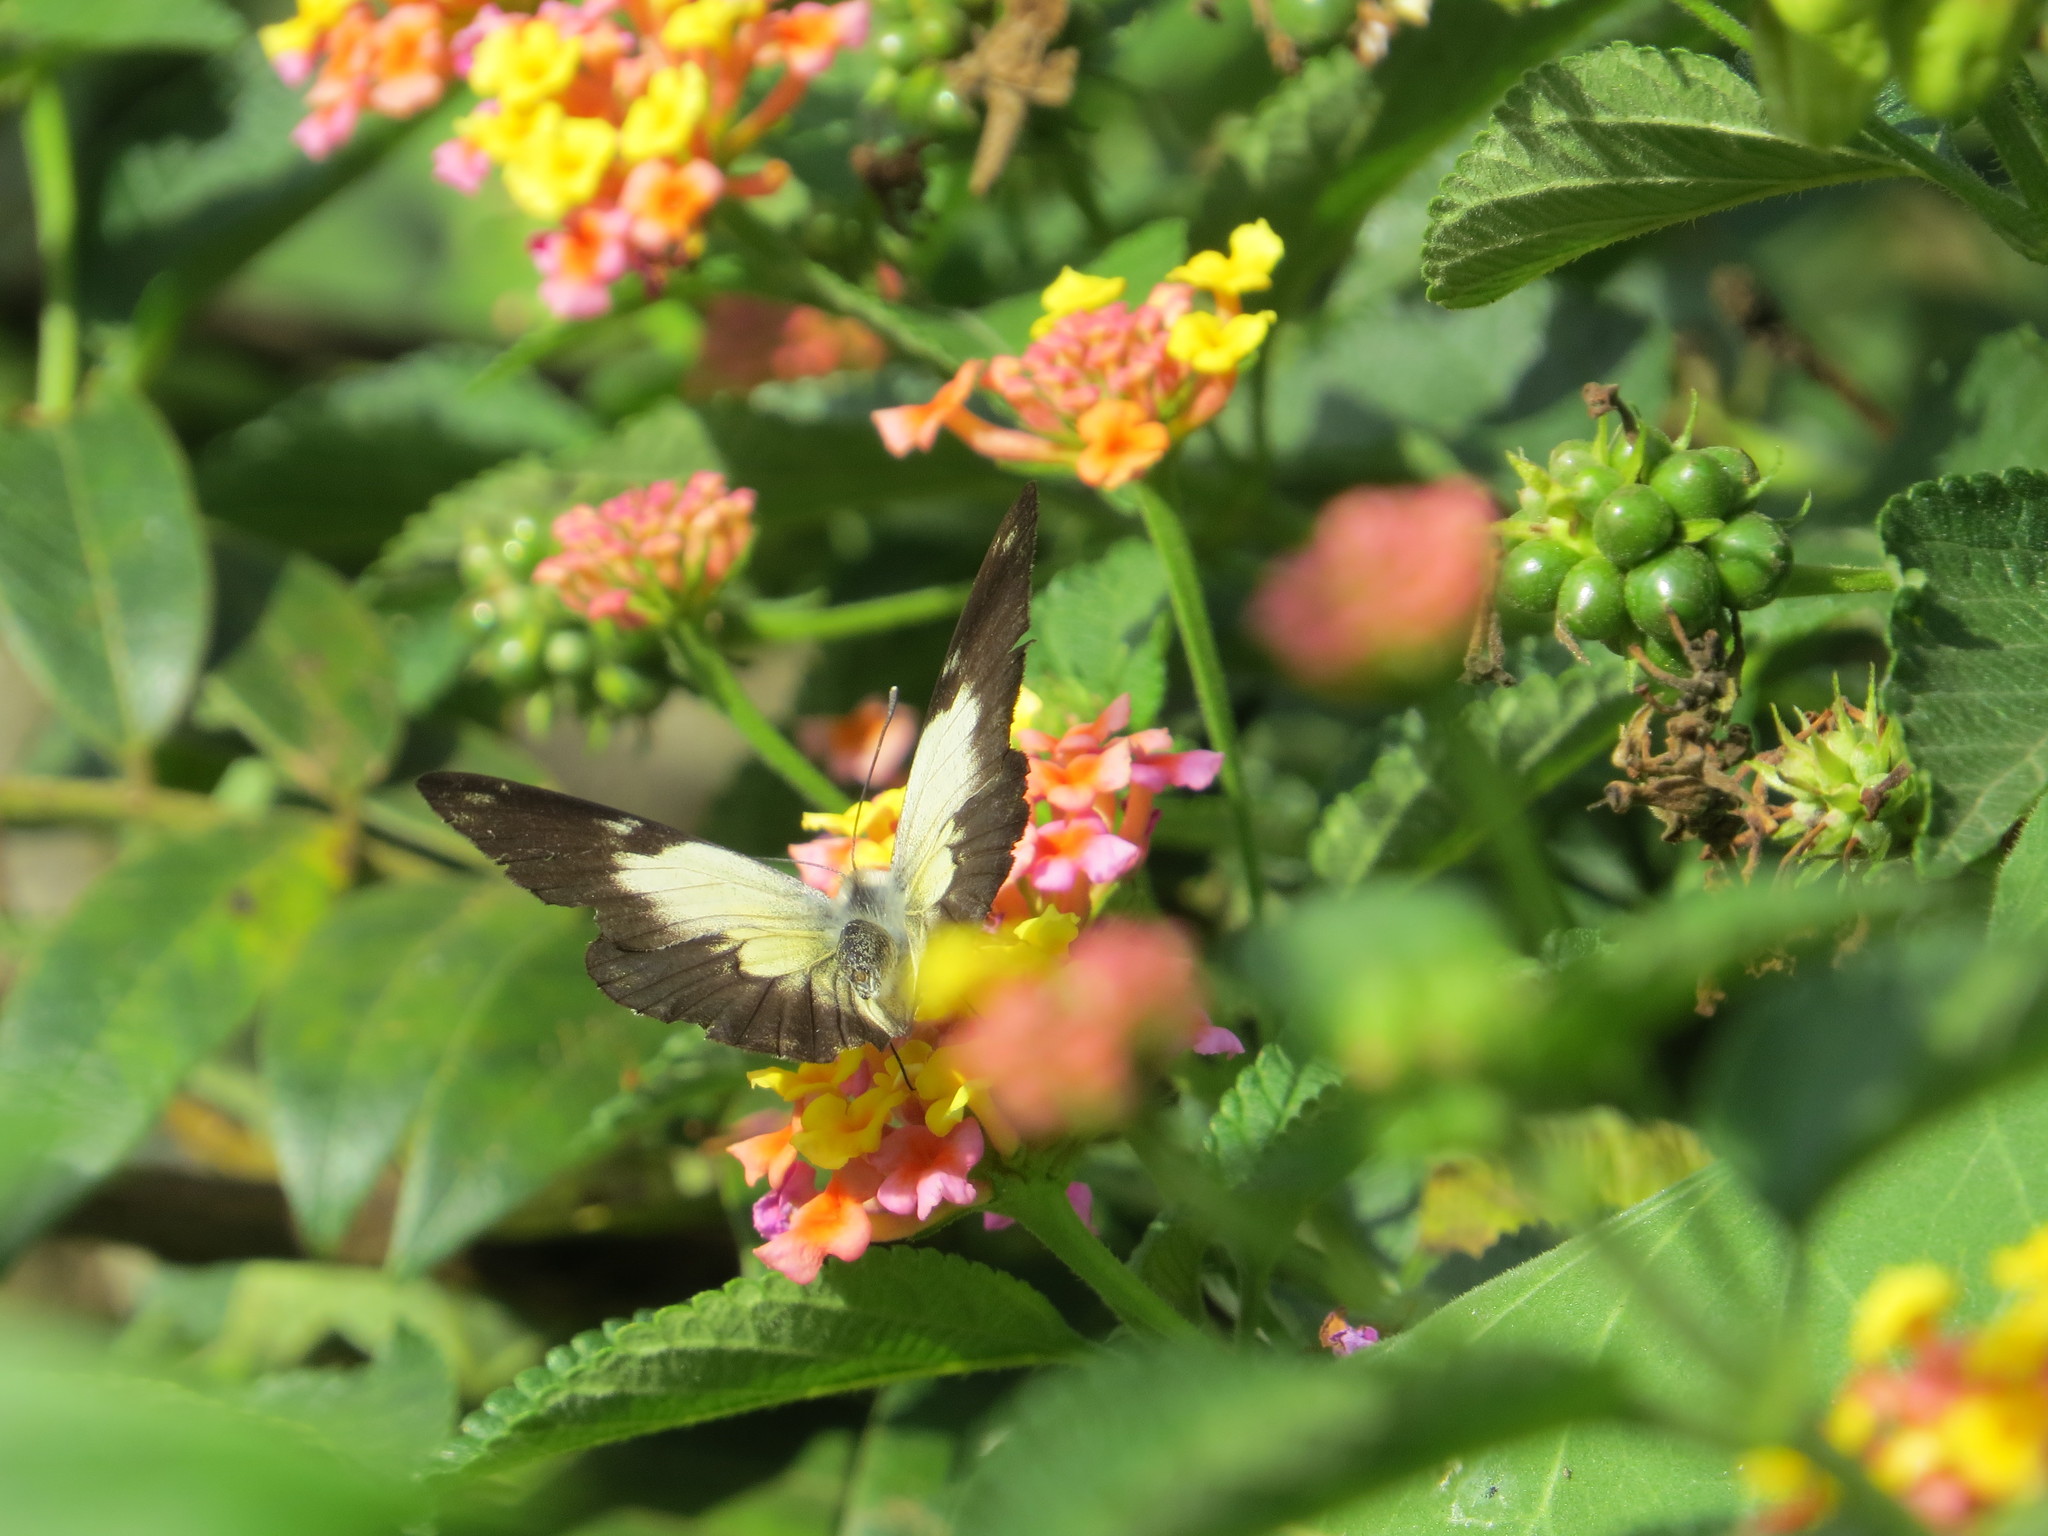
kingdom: Animalia
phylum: Arthropoda
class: Insecta
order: Lepidoptera
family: Pieridae
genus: Belenois
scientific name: Belenois creona
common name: African caper white
